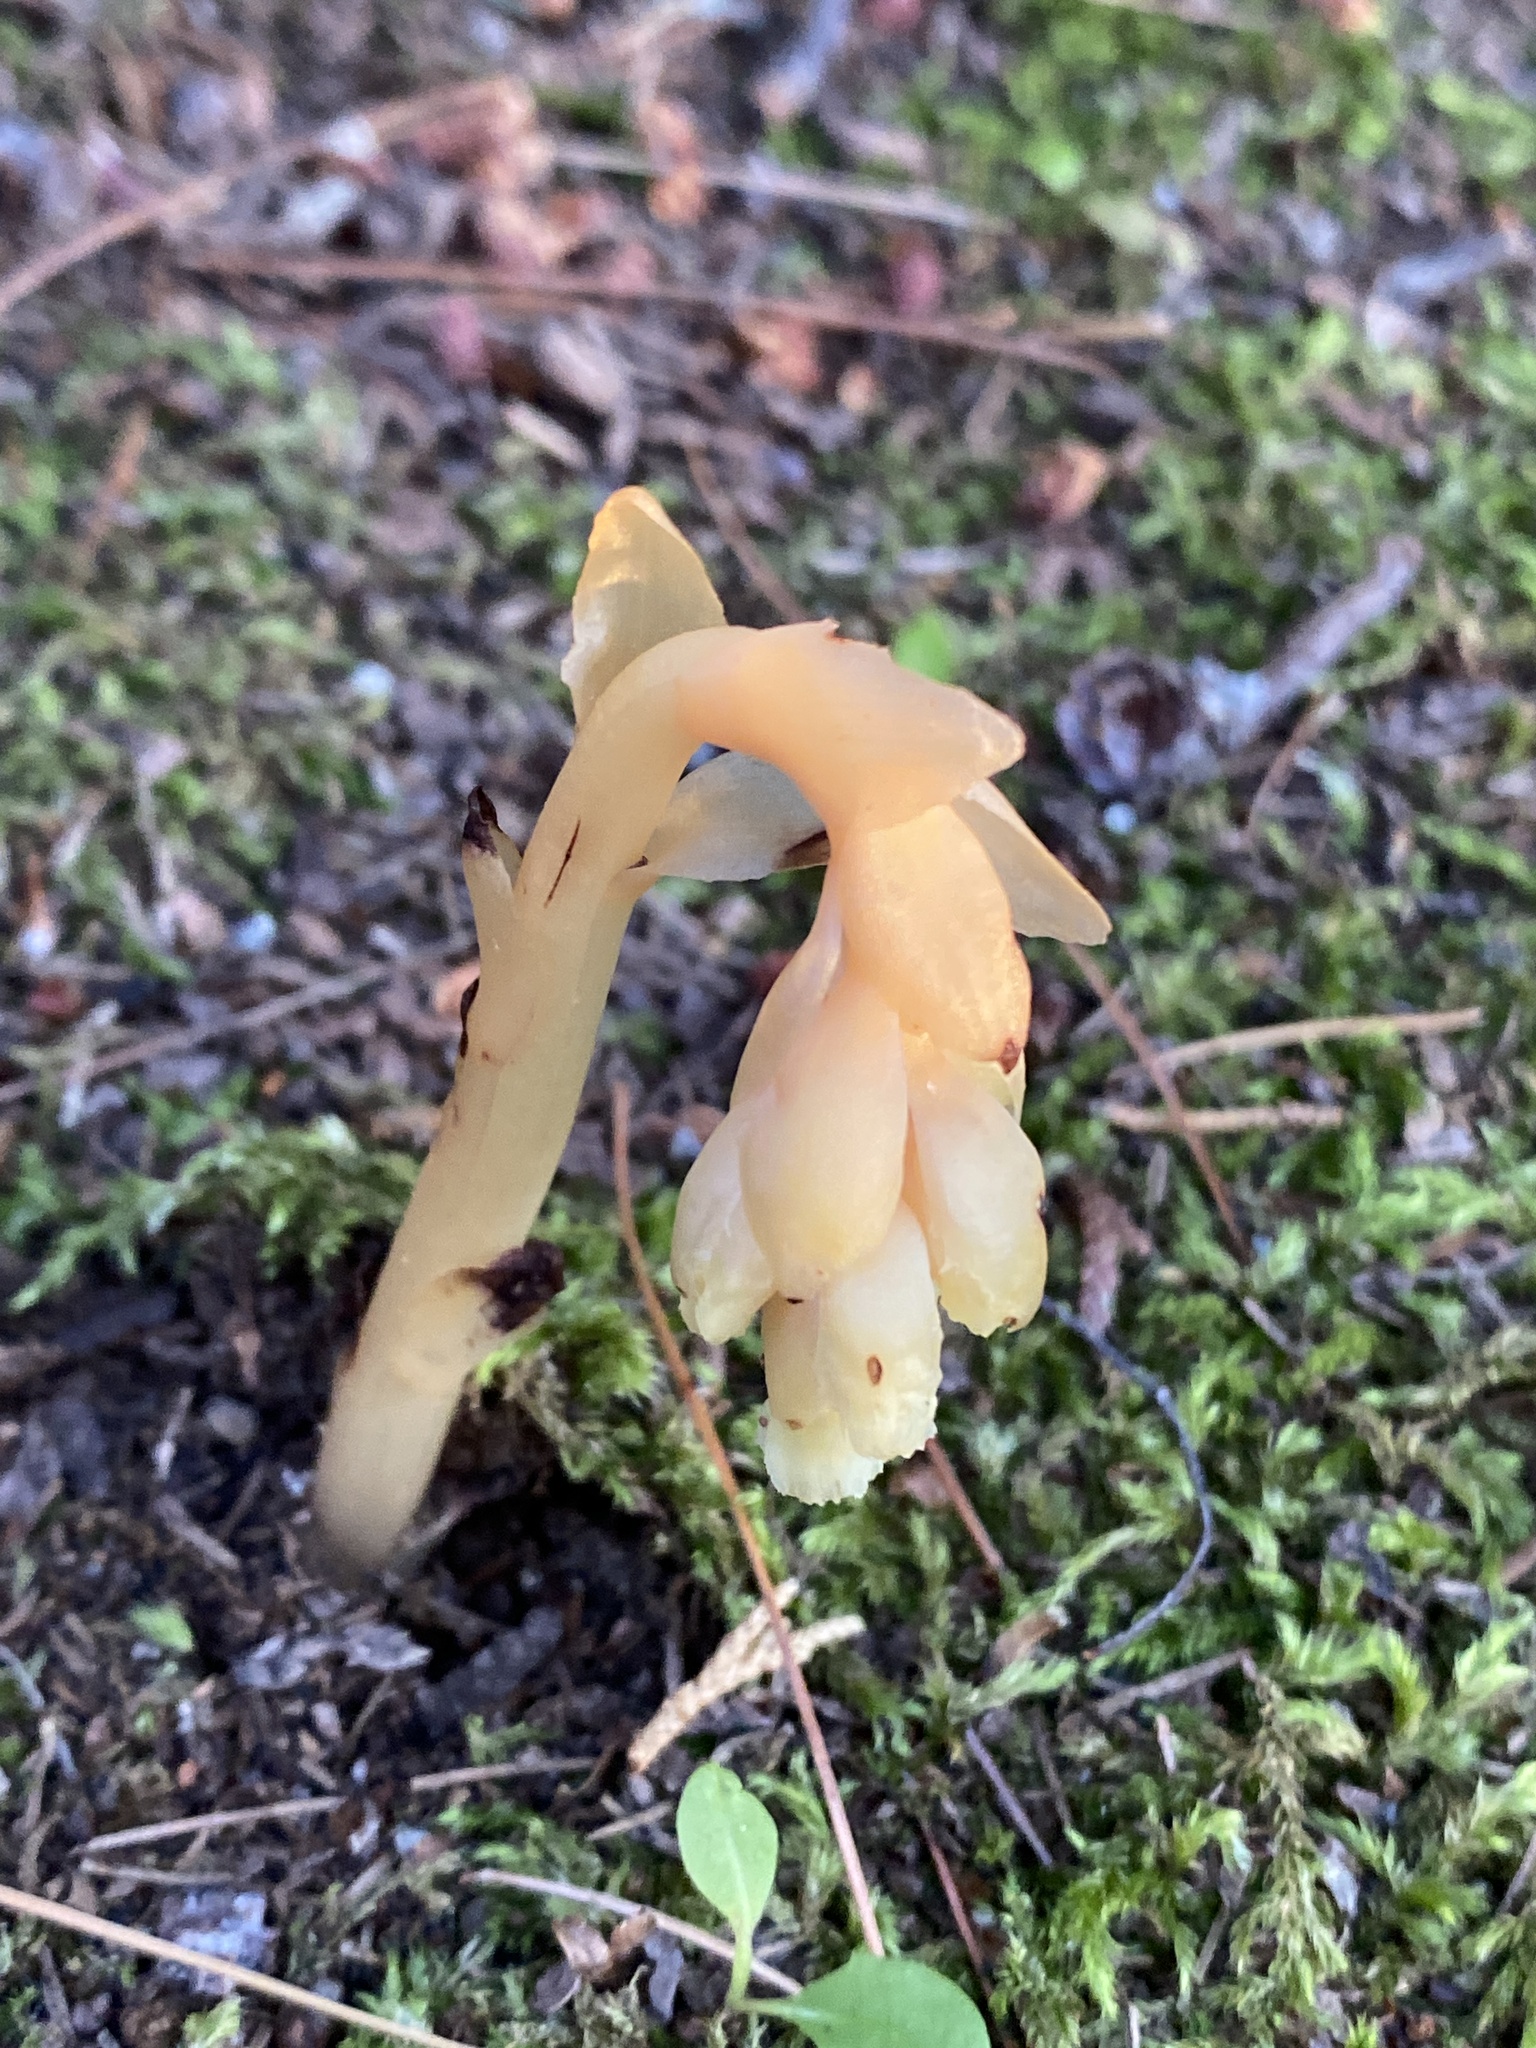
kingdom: Plantae
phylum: Tracheophyta
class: Magnoliopsida
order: Ericales
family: Ericaceae
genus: Hypopitys
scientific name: Hypopitys monotropa
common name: Yellow bird's-nest
